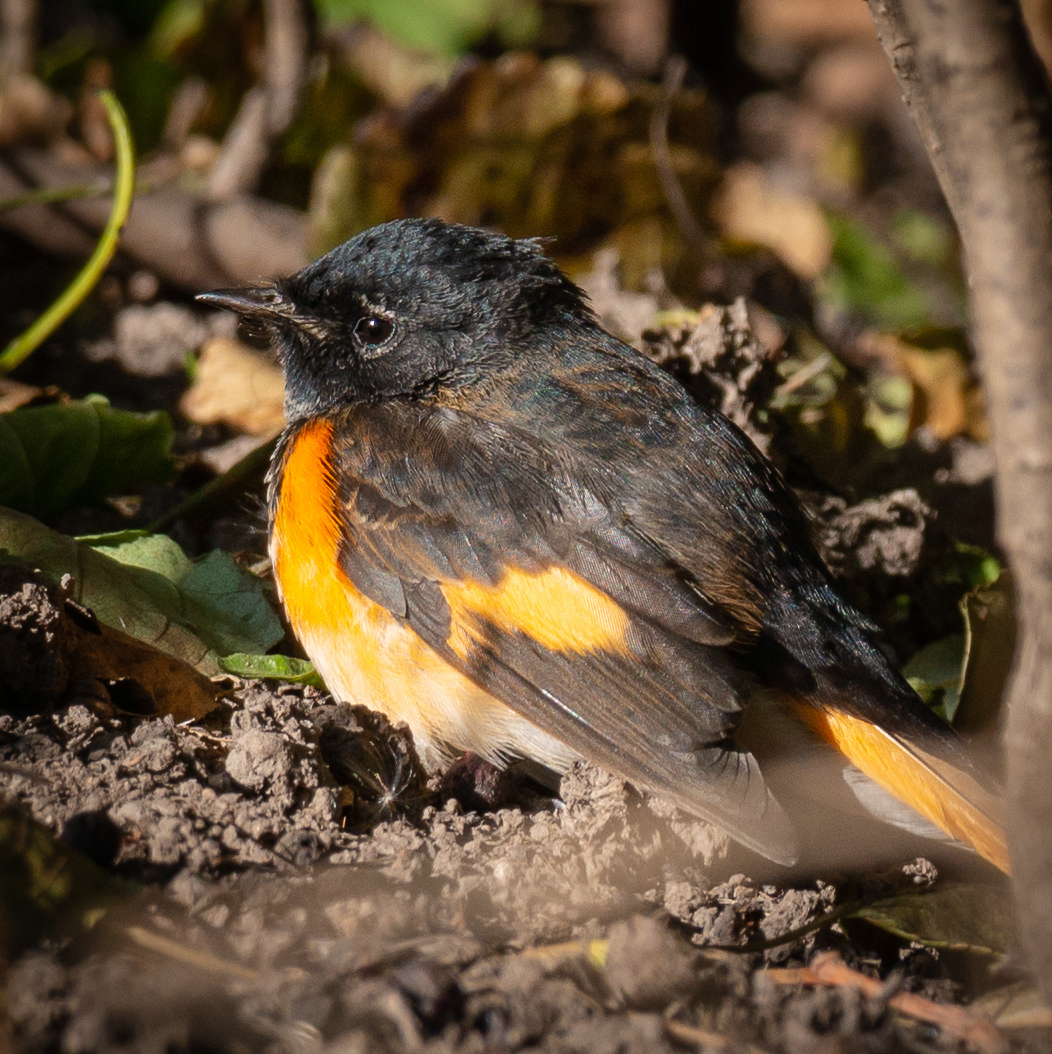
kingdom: Animalia
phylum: Chordata
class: Aves
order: Passeriformes
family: Parulidae
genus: Setophaga
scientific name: Setophaga ruticilla
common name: American redstart
